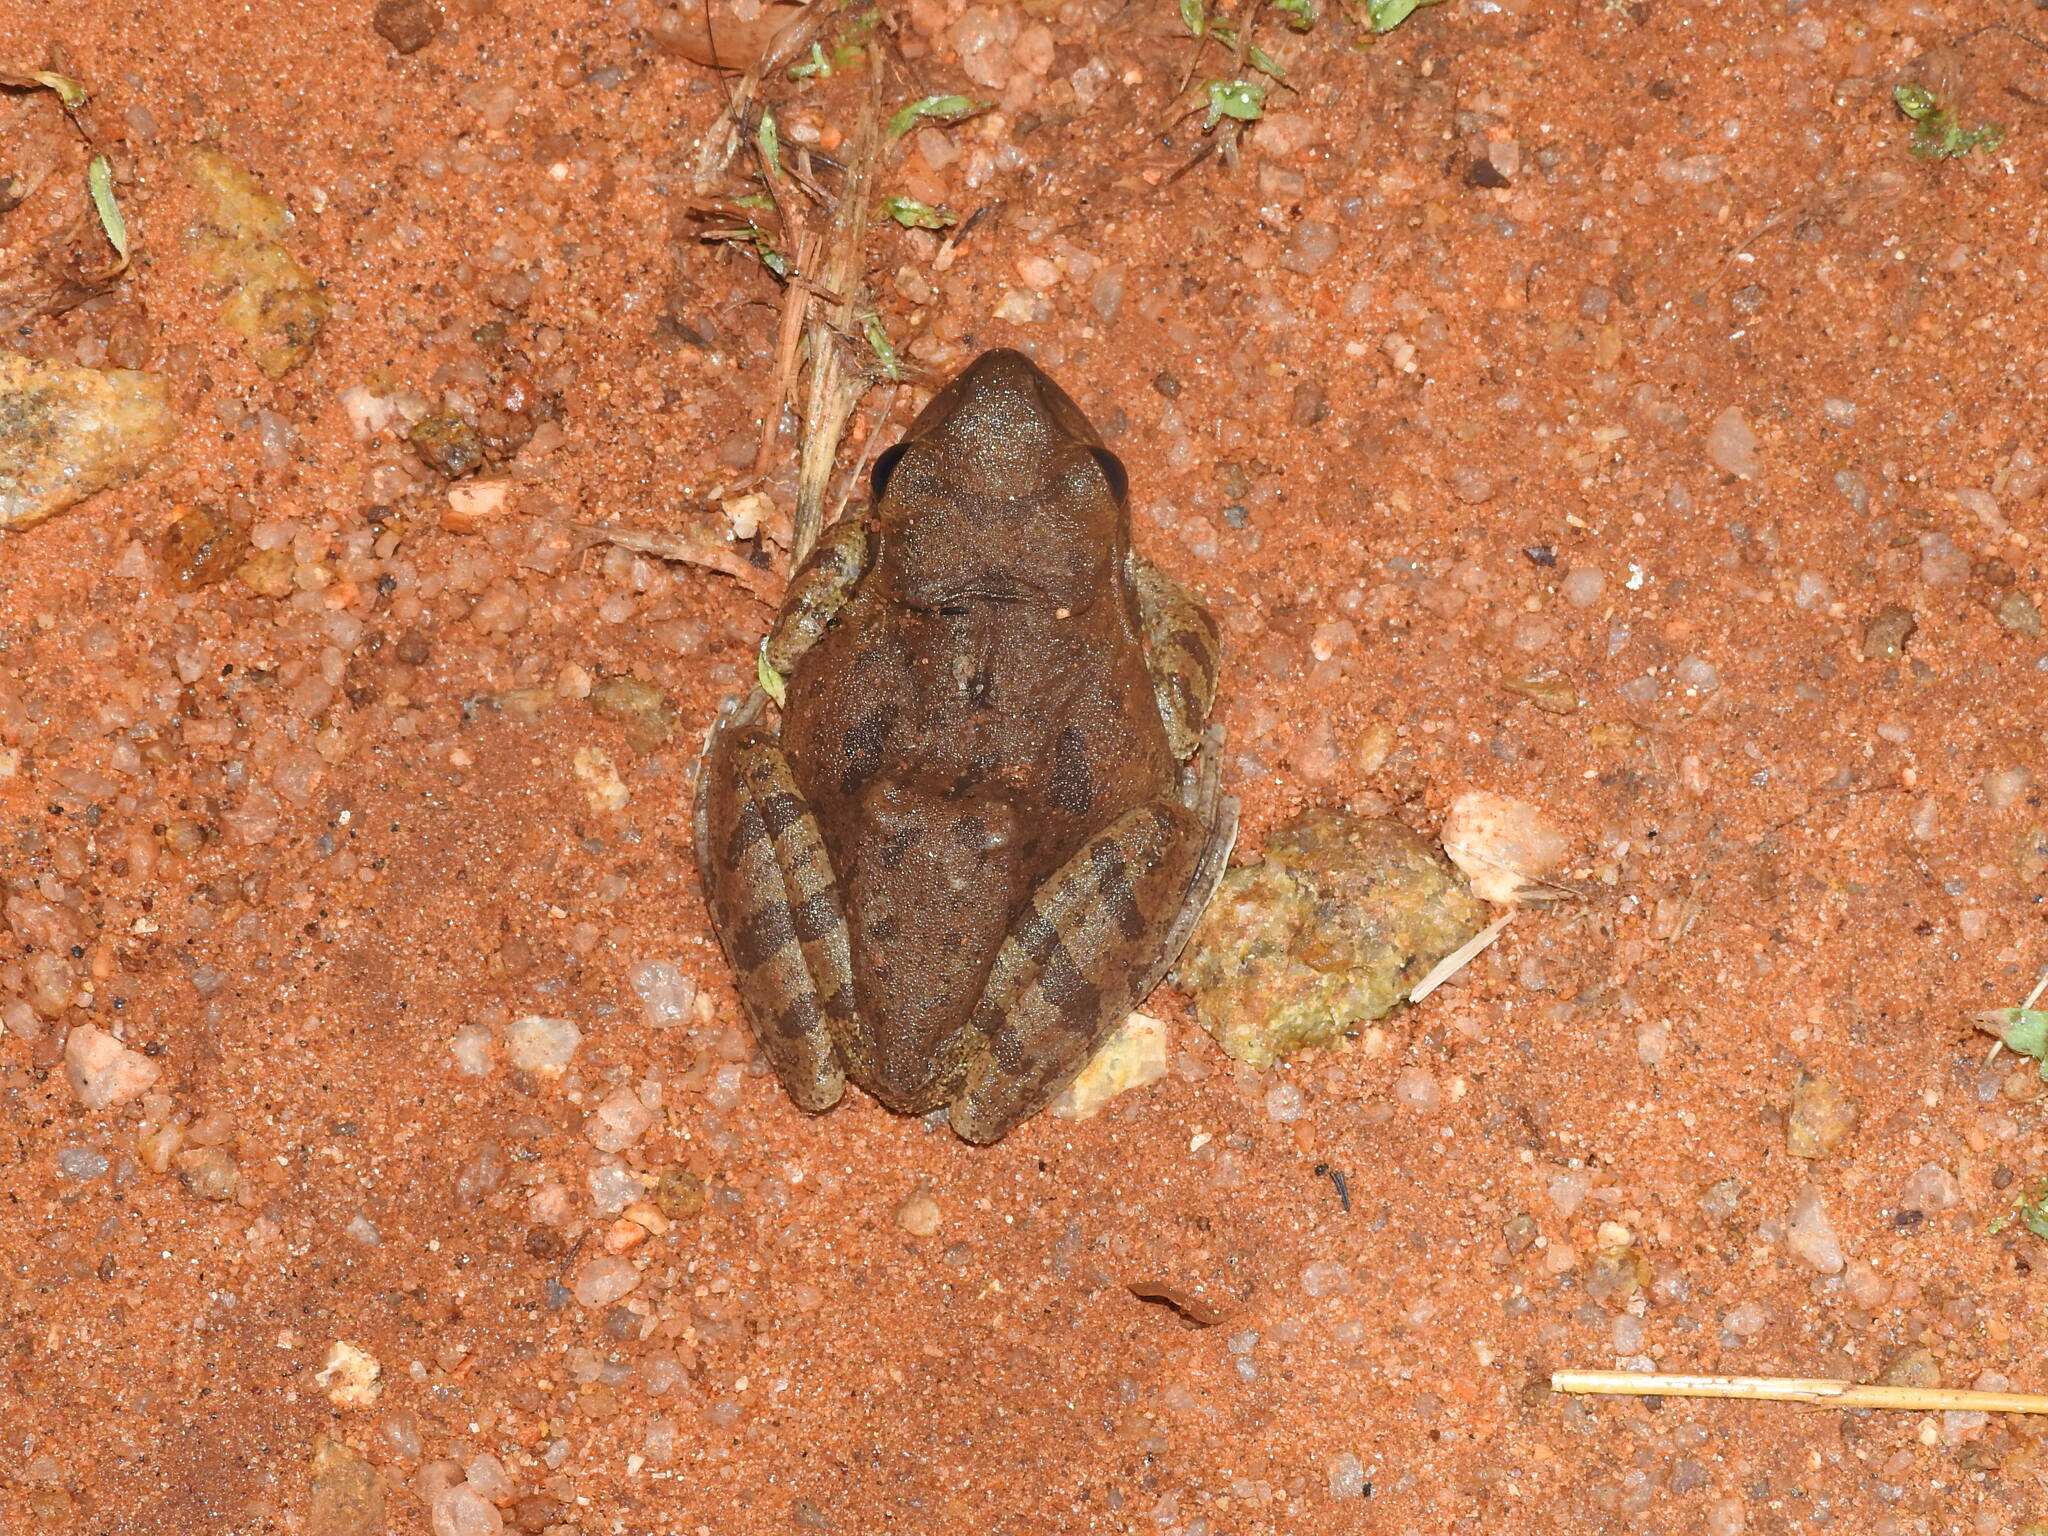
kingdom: Animalia
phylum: Chordata
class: Amphibia
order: Anura
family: Rhacophoridae
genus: Polypedates
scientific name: Polypedates maculatus
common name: Himalayan tree frog
